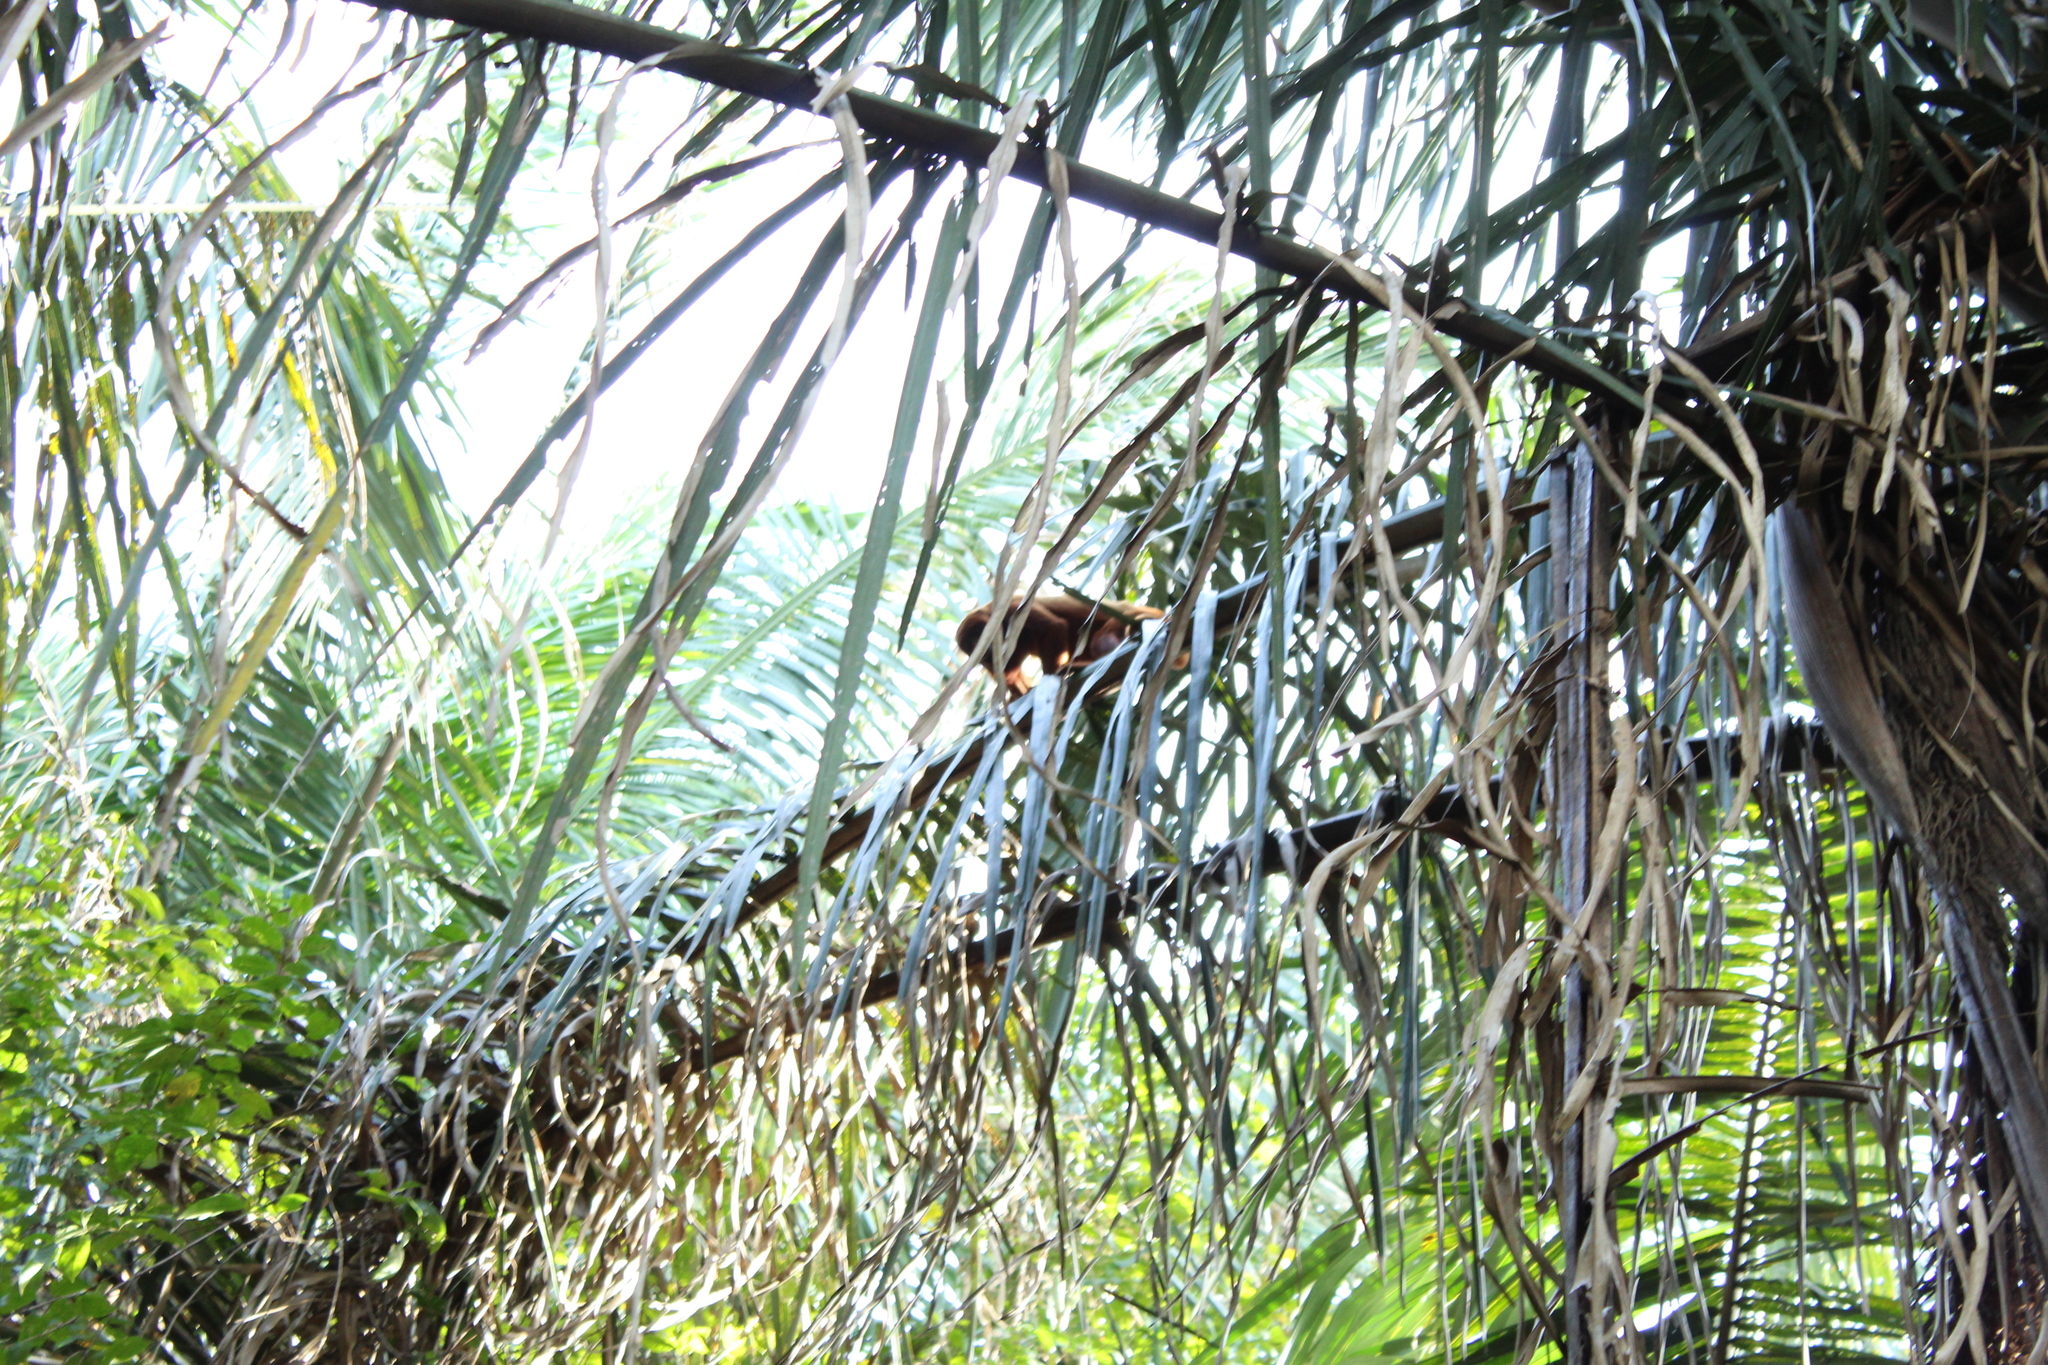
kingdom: Animalia
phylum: Chordata
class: Mammalia
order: Primates
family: Atelidae
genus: Alouatta
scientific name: Alouatta seniculus
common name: Venezuelan red howler
